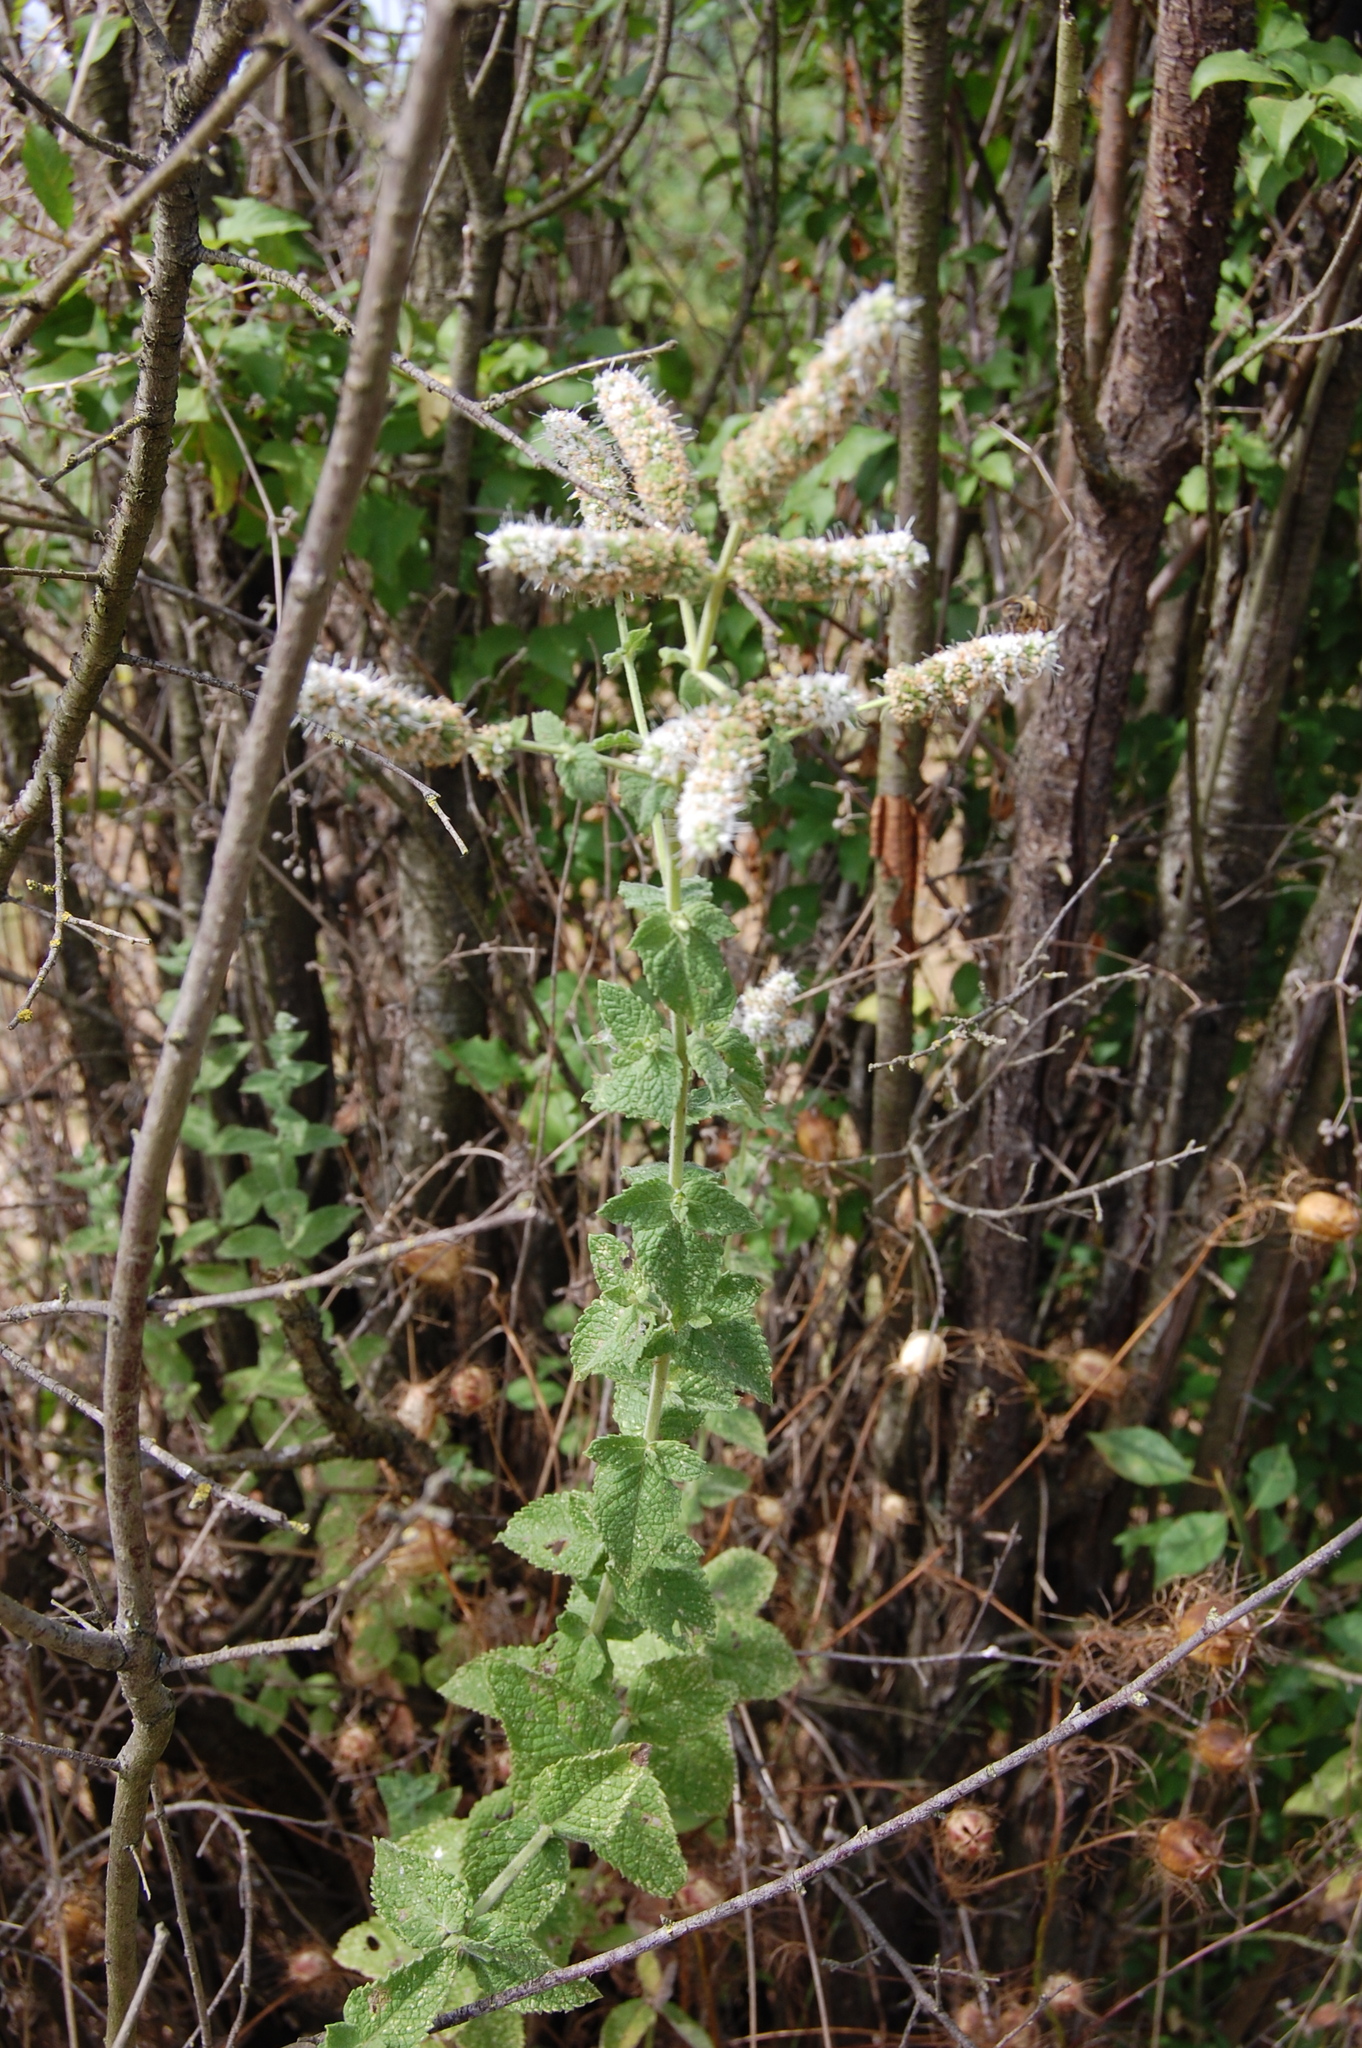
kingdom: Plantae
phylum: Tracheophyta
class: Magnoliopsida
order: Lamiales
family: Lamiaceae
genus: Mentha
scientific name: Mentha suaveolens
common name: Apple mint
